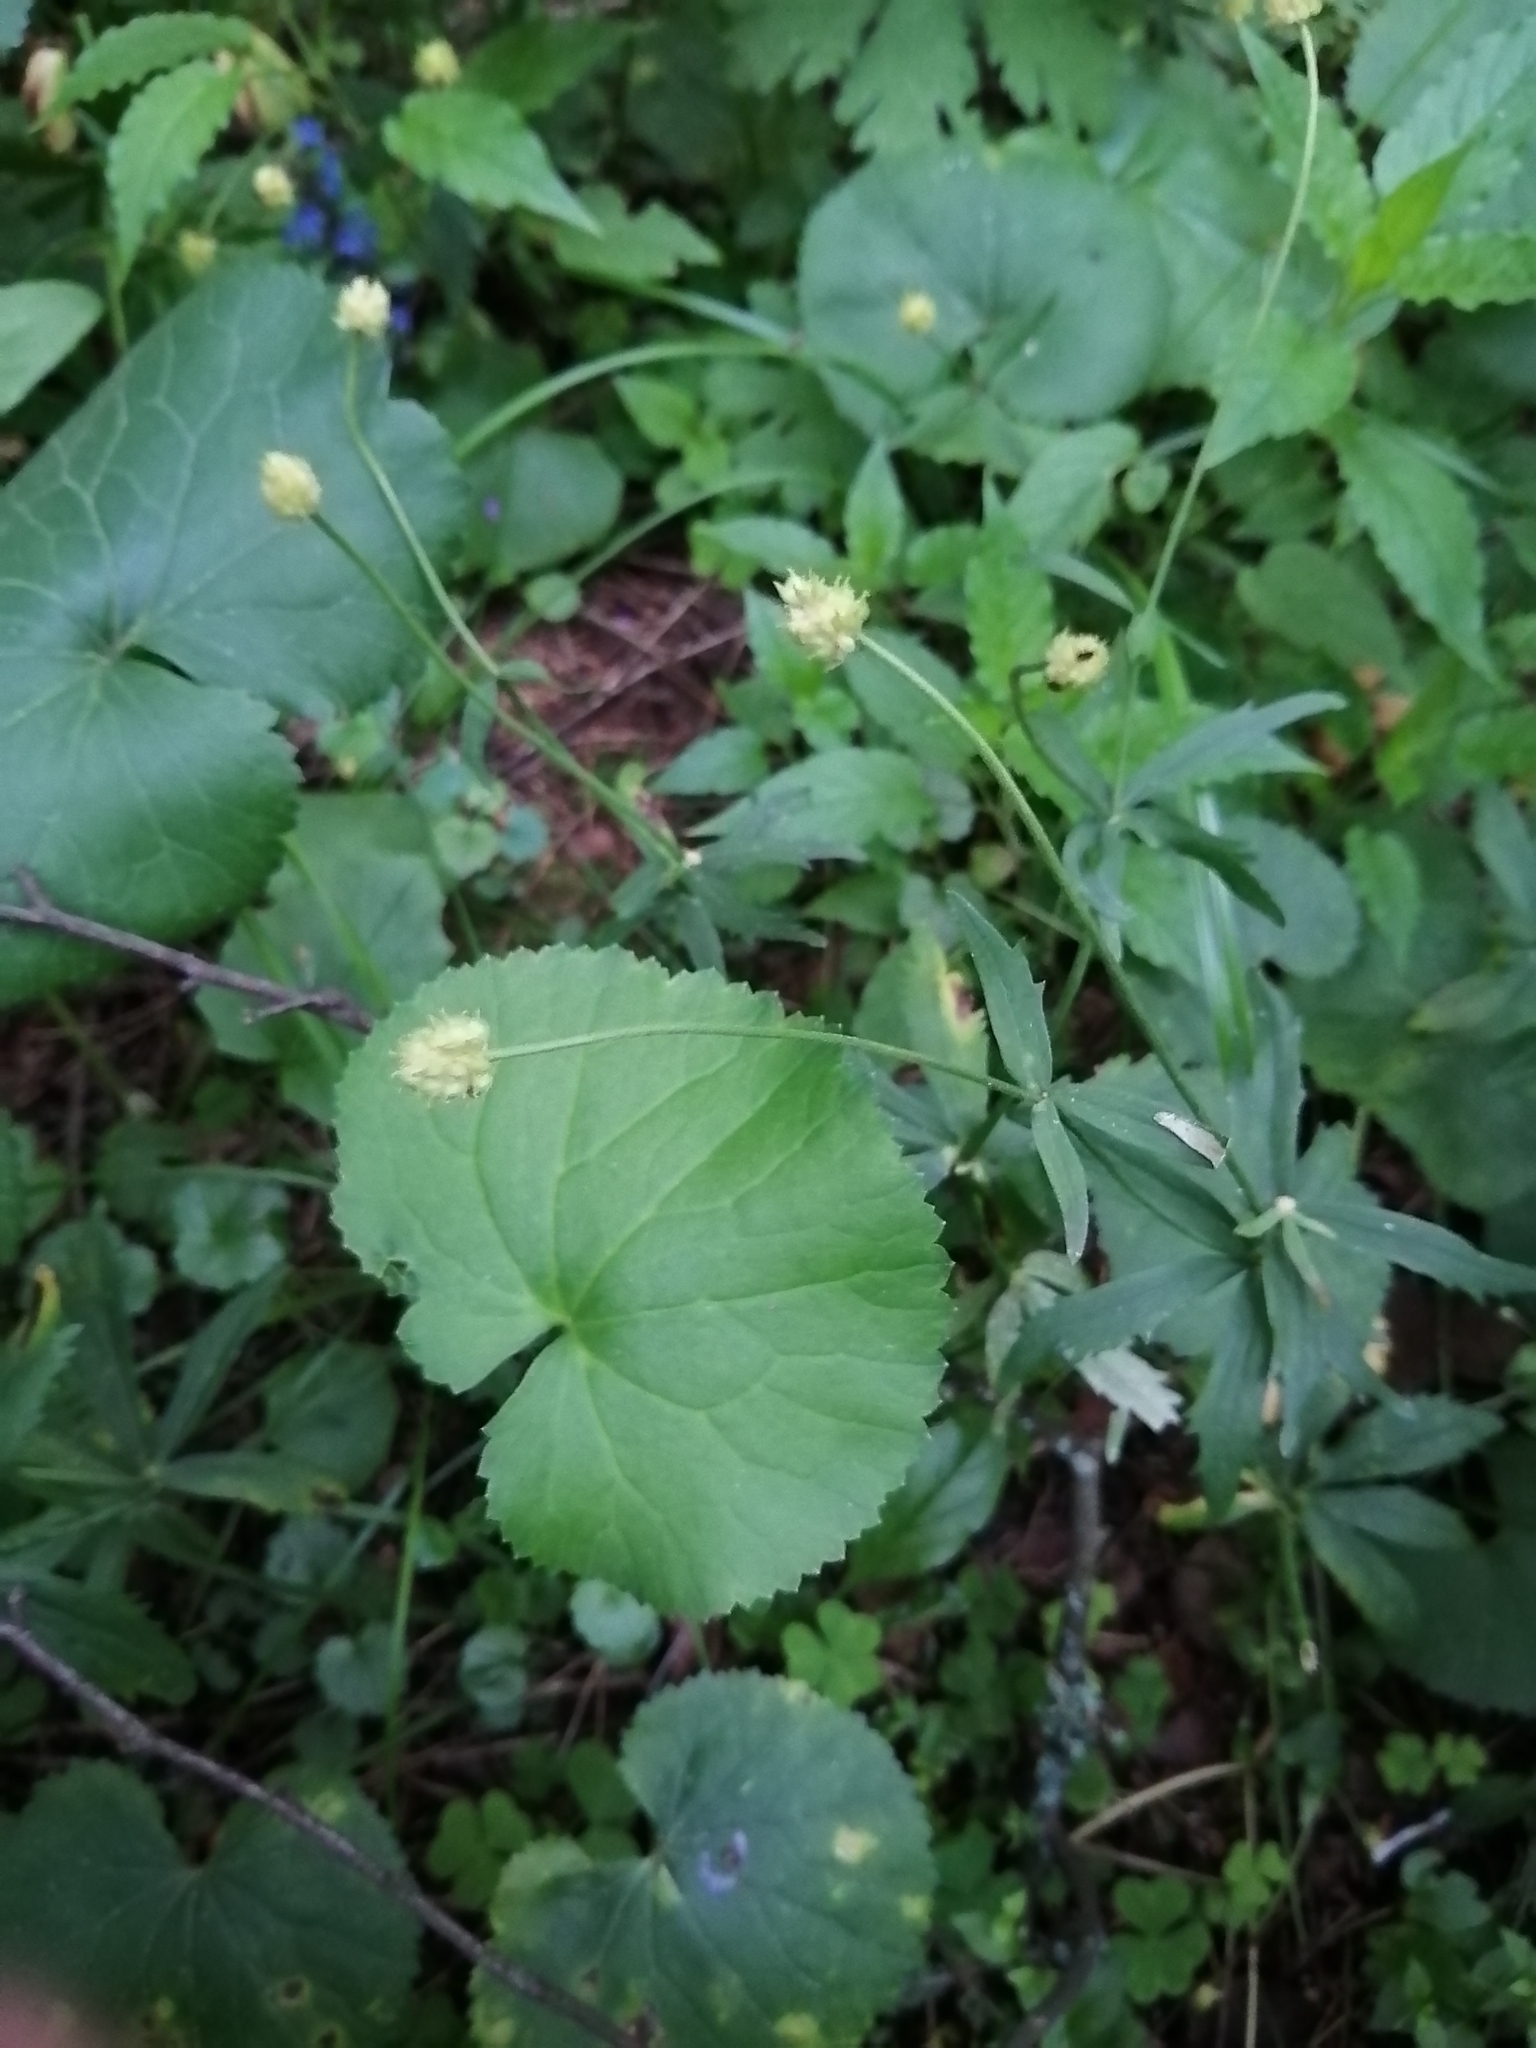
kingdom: Plantae
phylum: Tracheophyta
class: Magnoliopsida
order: Ranunculales
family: Ranunculaceae
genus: Ranunculus
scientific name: Ranunculus cassubicus
